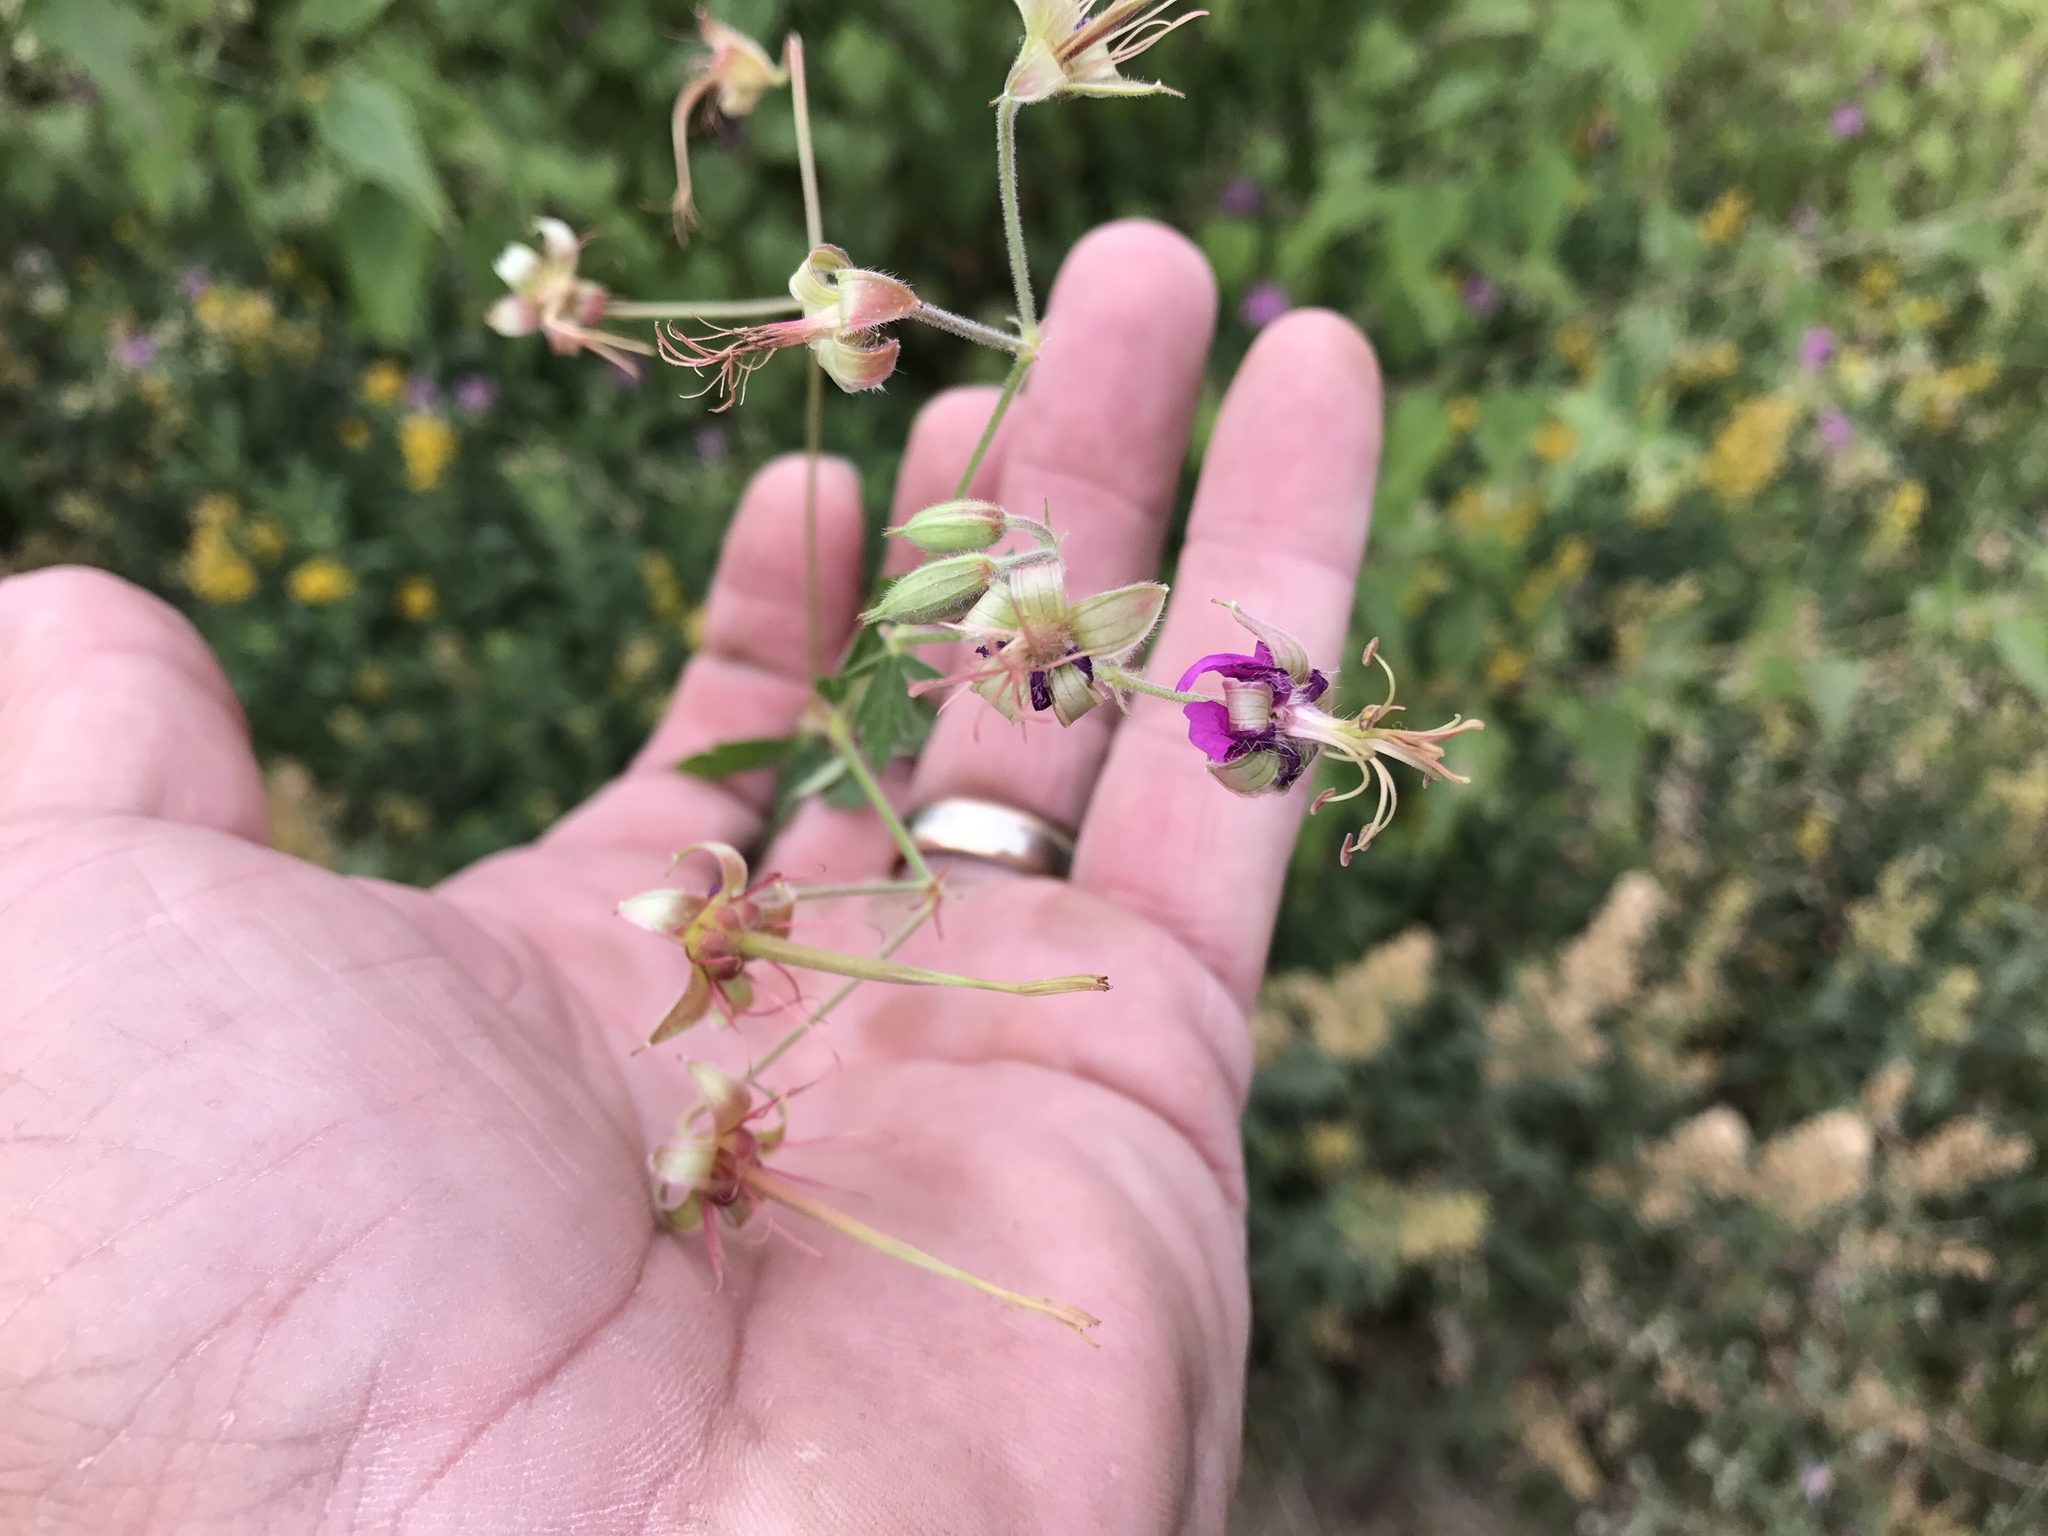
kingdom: Plantae
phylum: Tracheophyta
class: Magnoliopsida
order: Geraniales
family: Geraniaceae
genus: Geranium
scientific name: Geranium caespitosum
